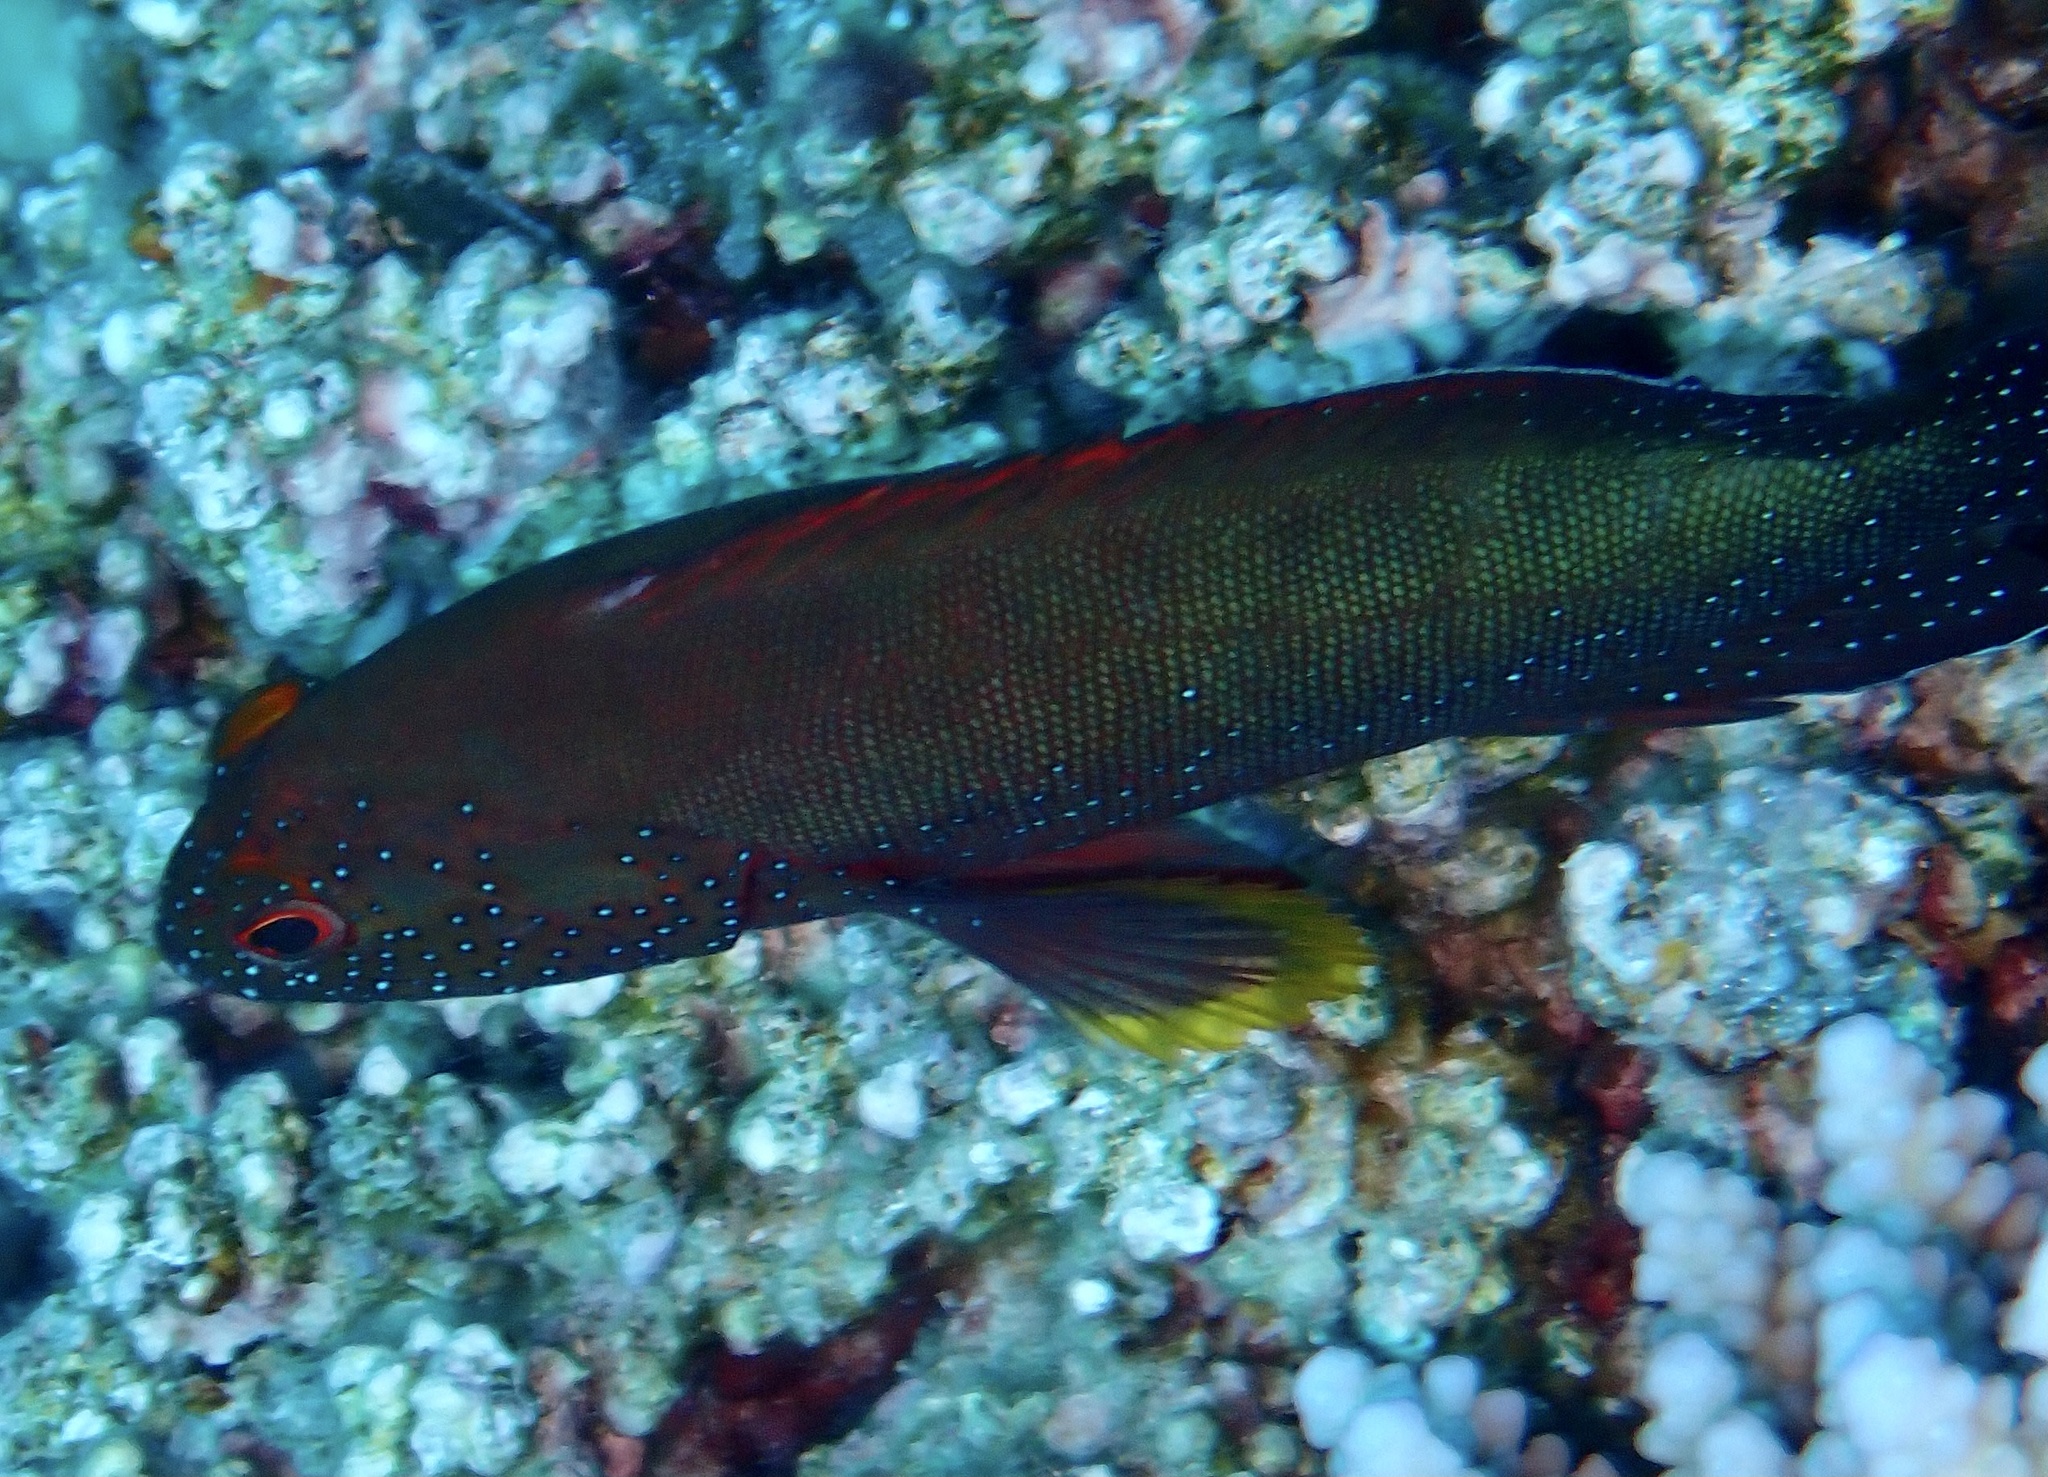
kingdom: Animalia
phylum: Chordata
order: Perciformes
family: Serranidae
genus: Cephalopholis
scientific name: Cephalopholis hemistiktos
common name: Halfspotted hind
